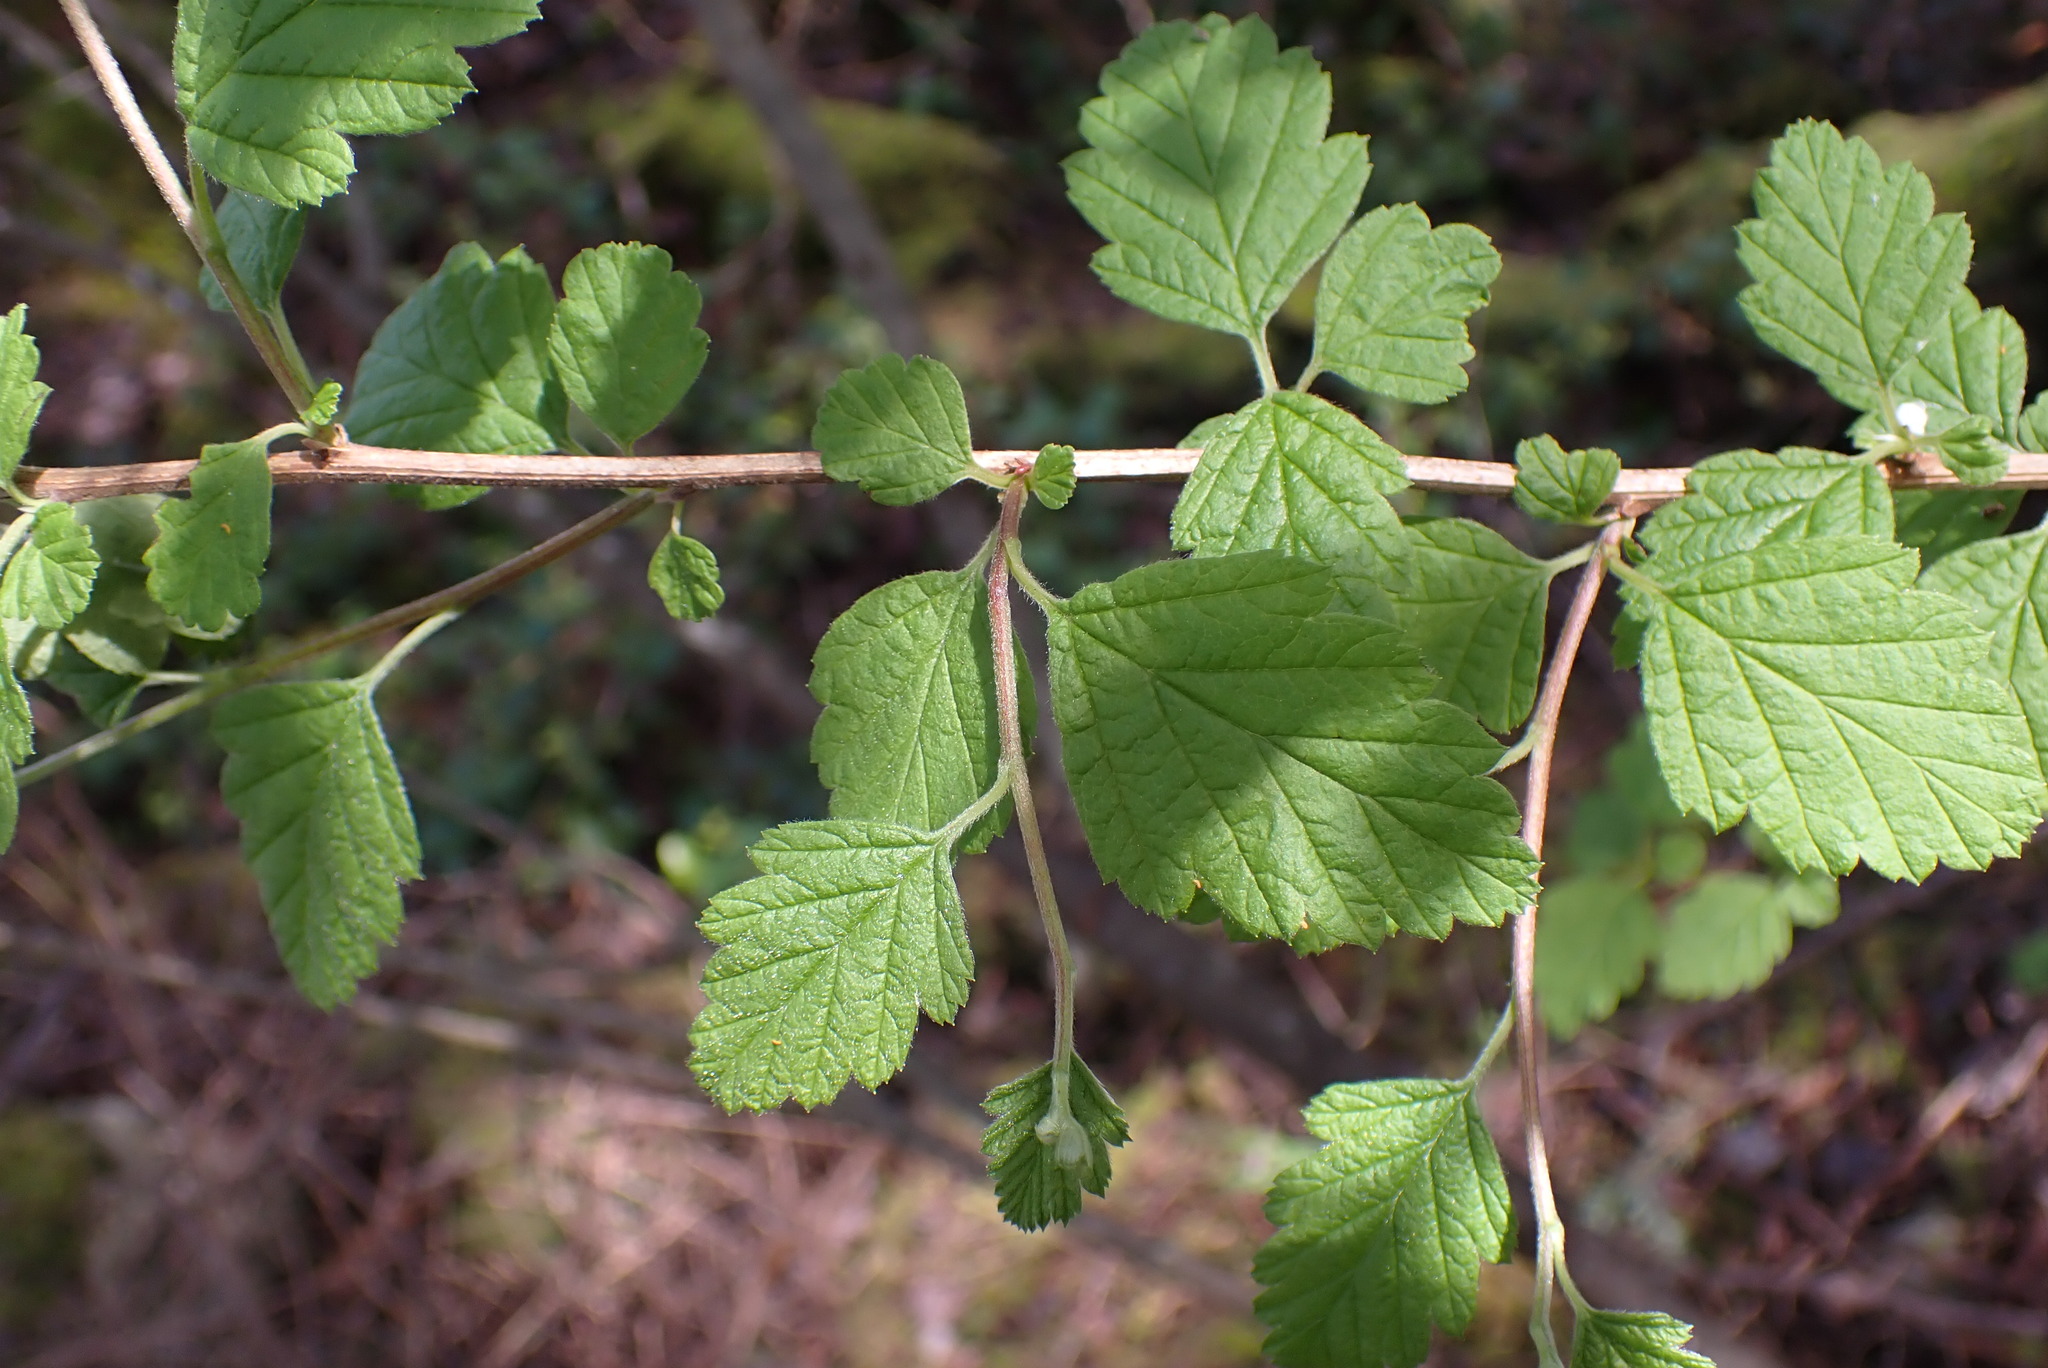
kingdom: Plantae
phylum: Tracheophyta
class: Magnoliopsida
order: Rosales
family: Rosaceae
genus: Holodiscus
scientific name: Holodiscus discolor
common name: Oceanspray
